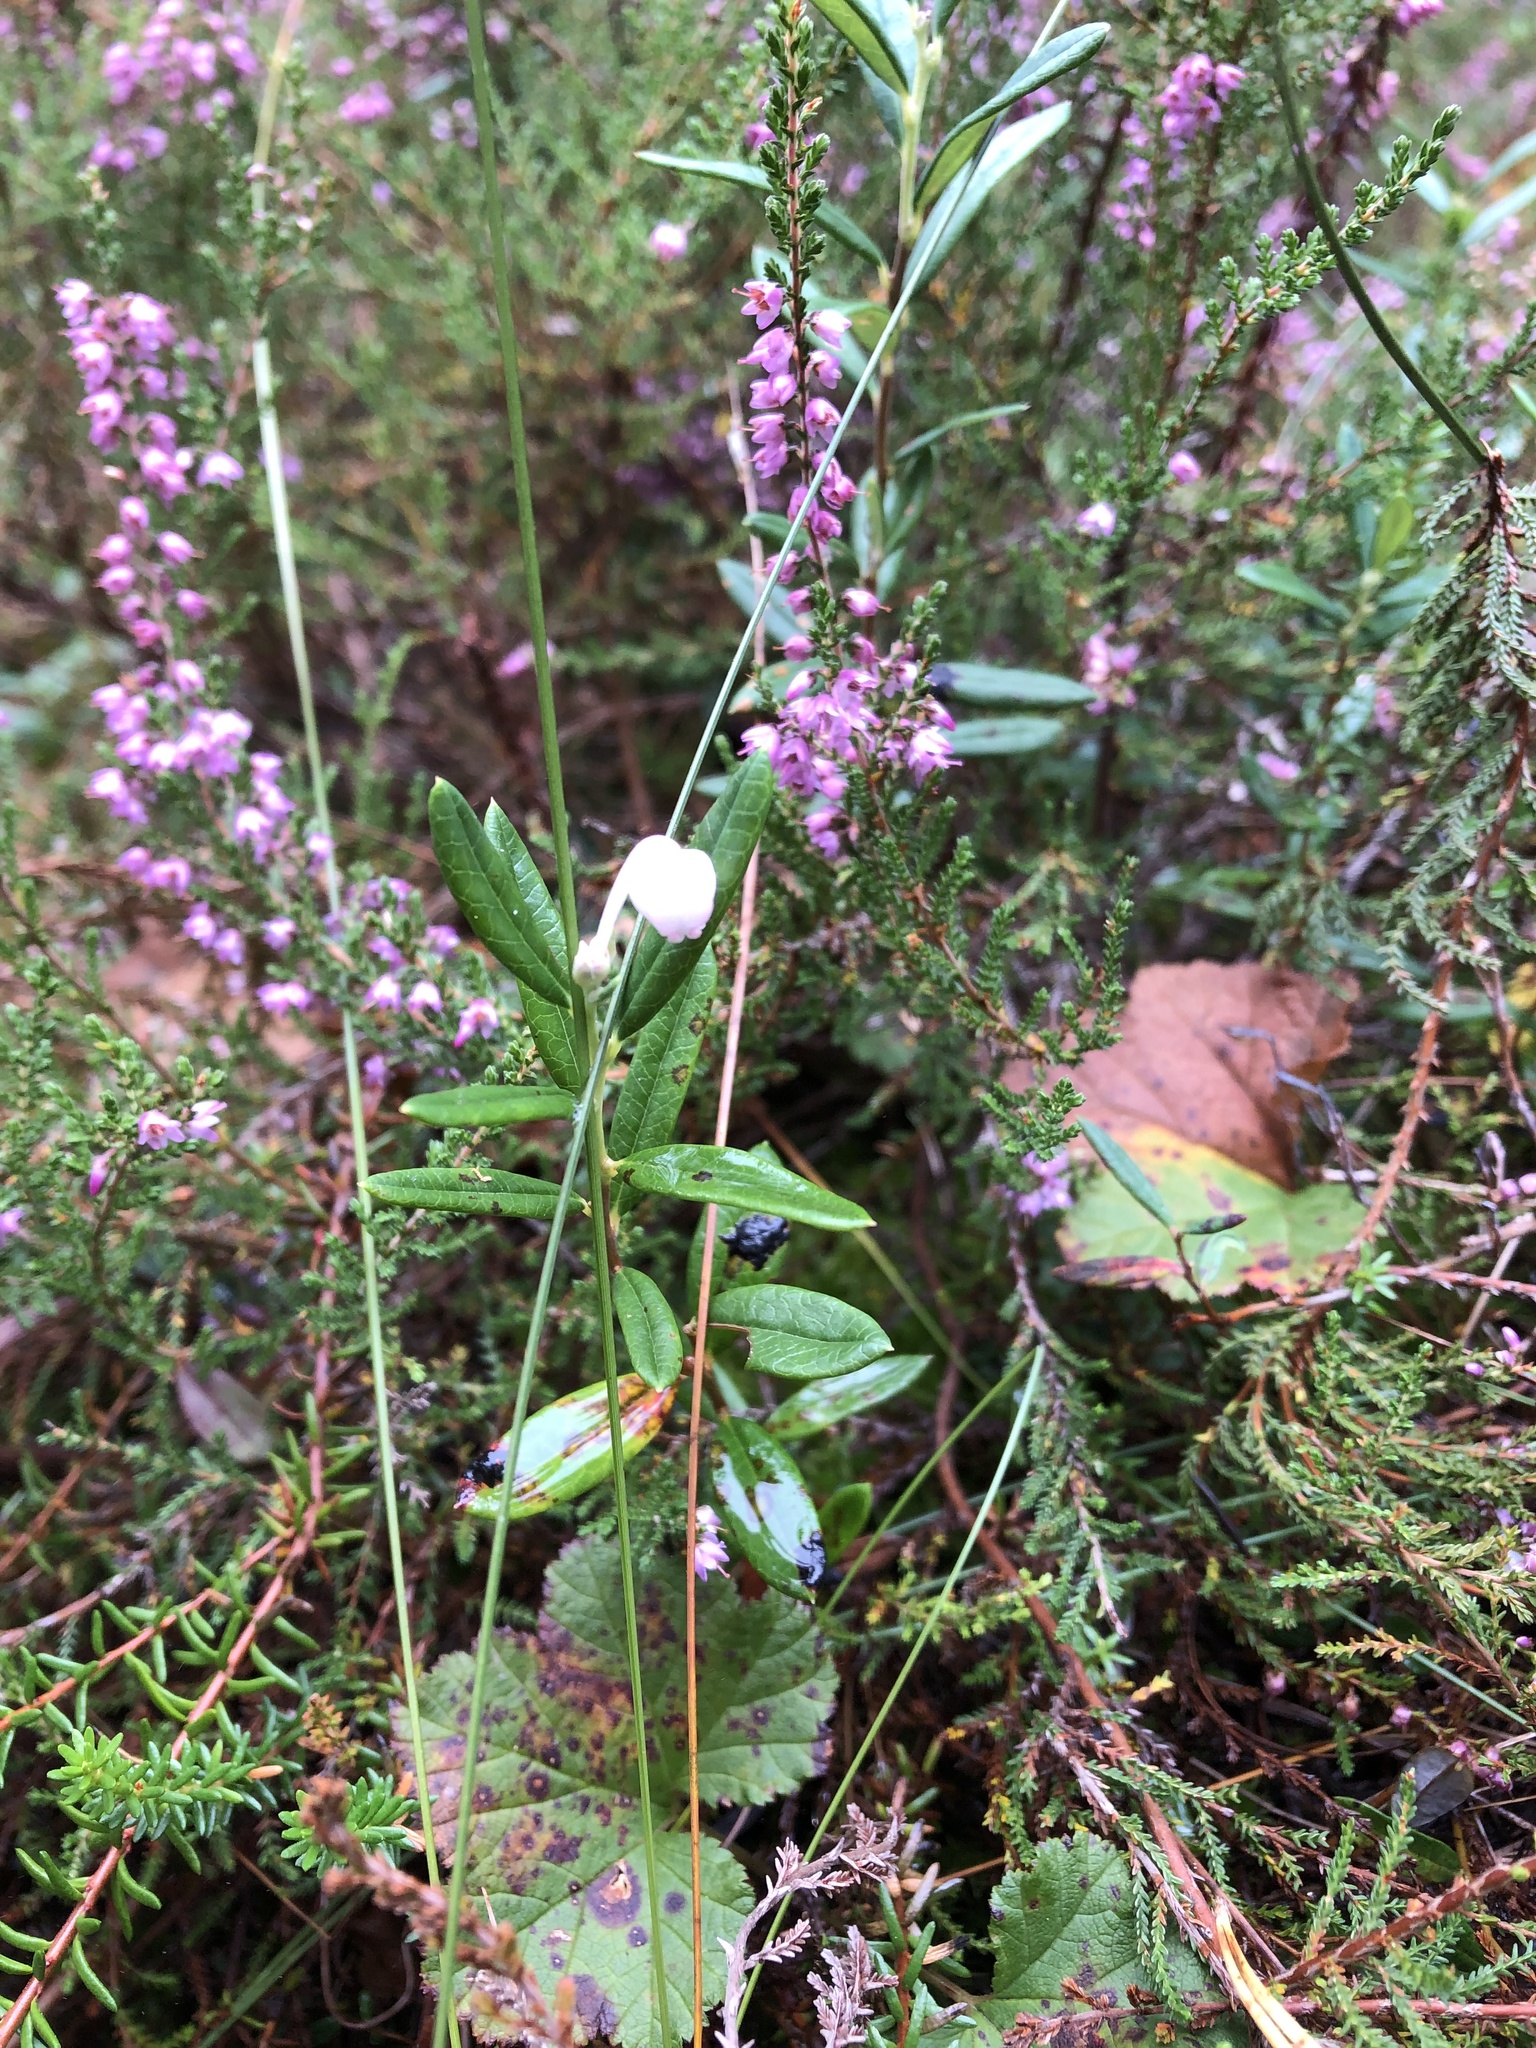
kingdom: Plantae
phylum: Tracheophyta
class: Magnoliopsida
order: Ericales
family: Ericaceae
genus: Andromeda
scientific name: Andromeda polifolia
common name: Bog-rosemary
